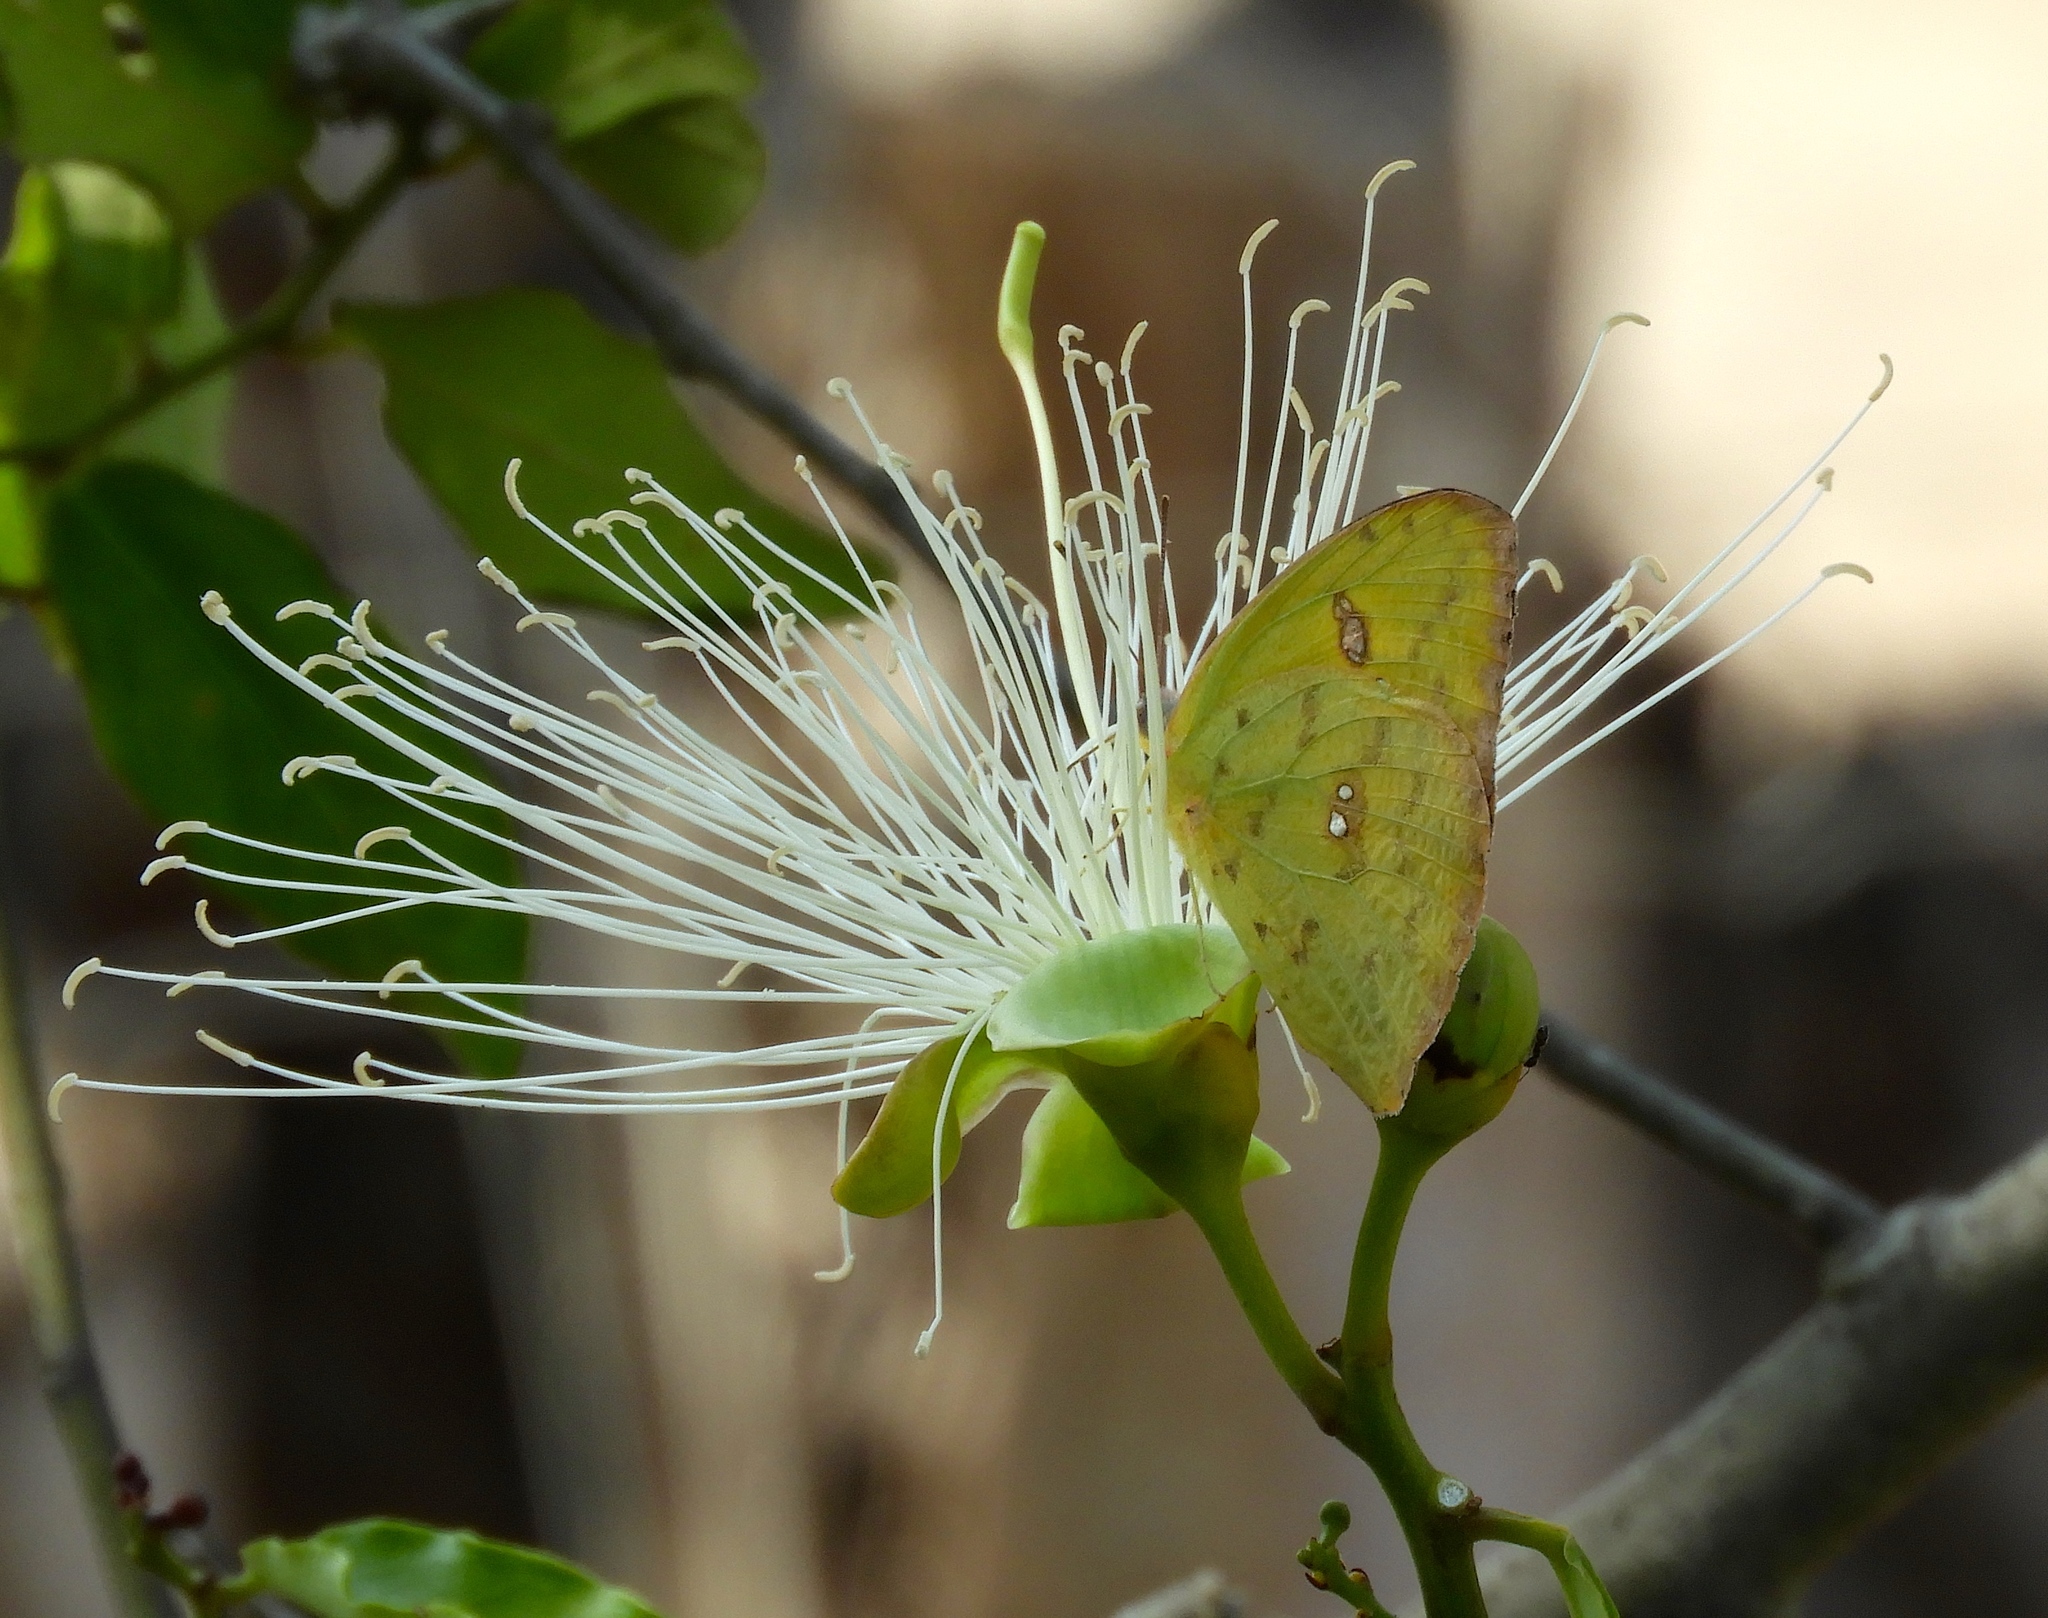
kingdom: Animalia
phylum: Arthropoda
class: Insecta
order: Lepidoptera
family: Pieridae
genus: Phoebis
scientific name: Phoebis philea
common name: Orange-barred giant sulphur
